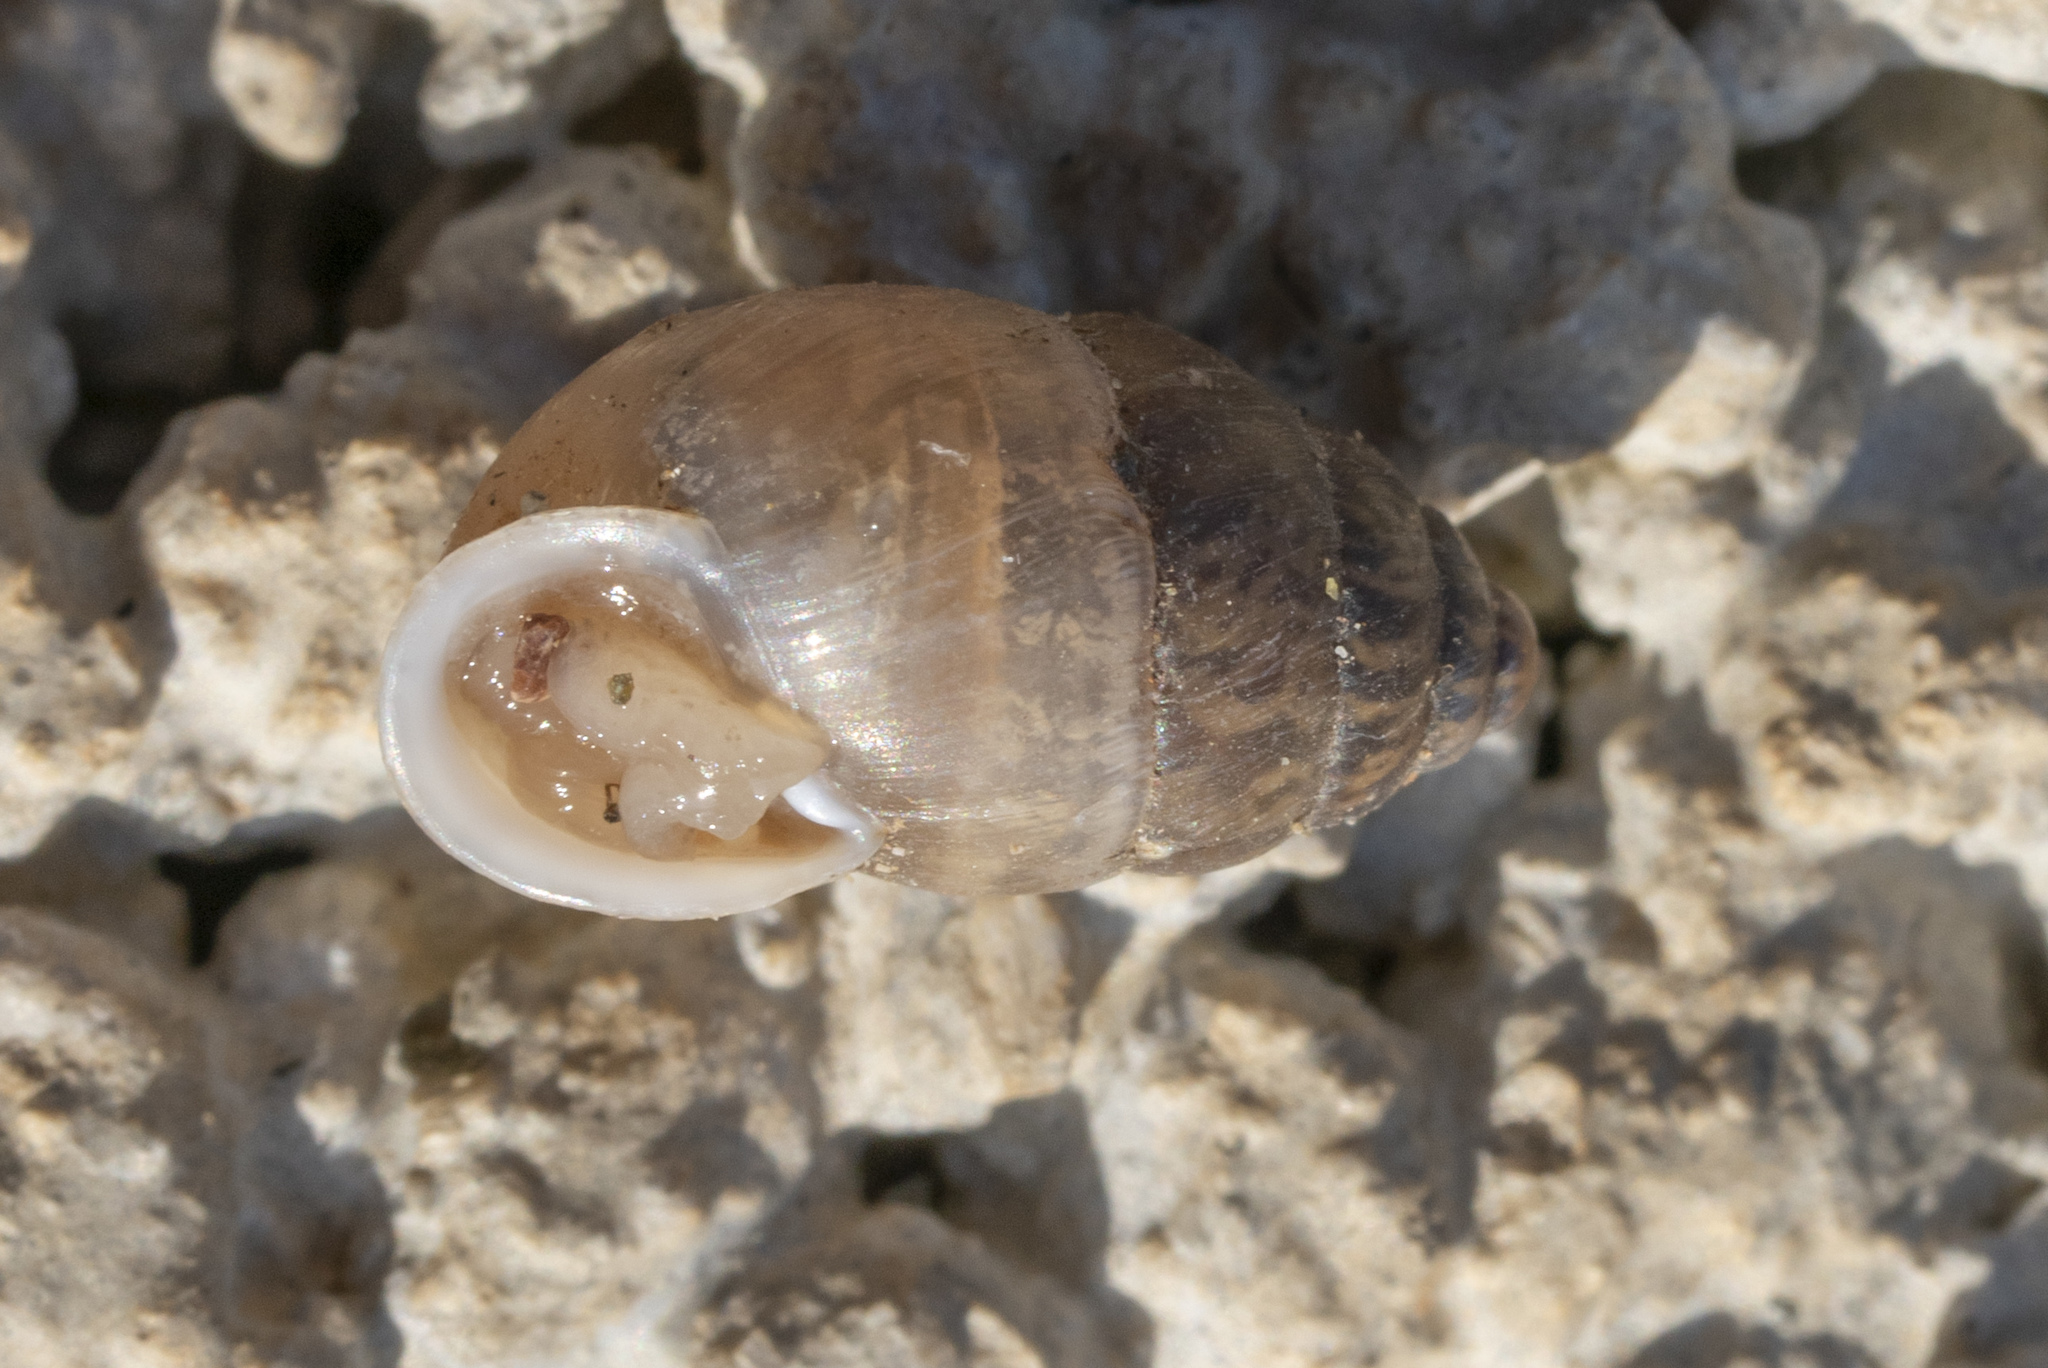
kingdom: Animalia
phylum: Mollusca
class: Gastropoda
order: Stylommatophora
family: Enidae
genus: Mastus
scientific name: Mastus turgidus
